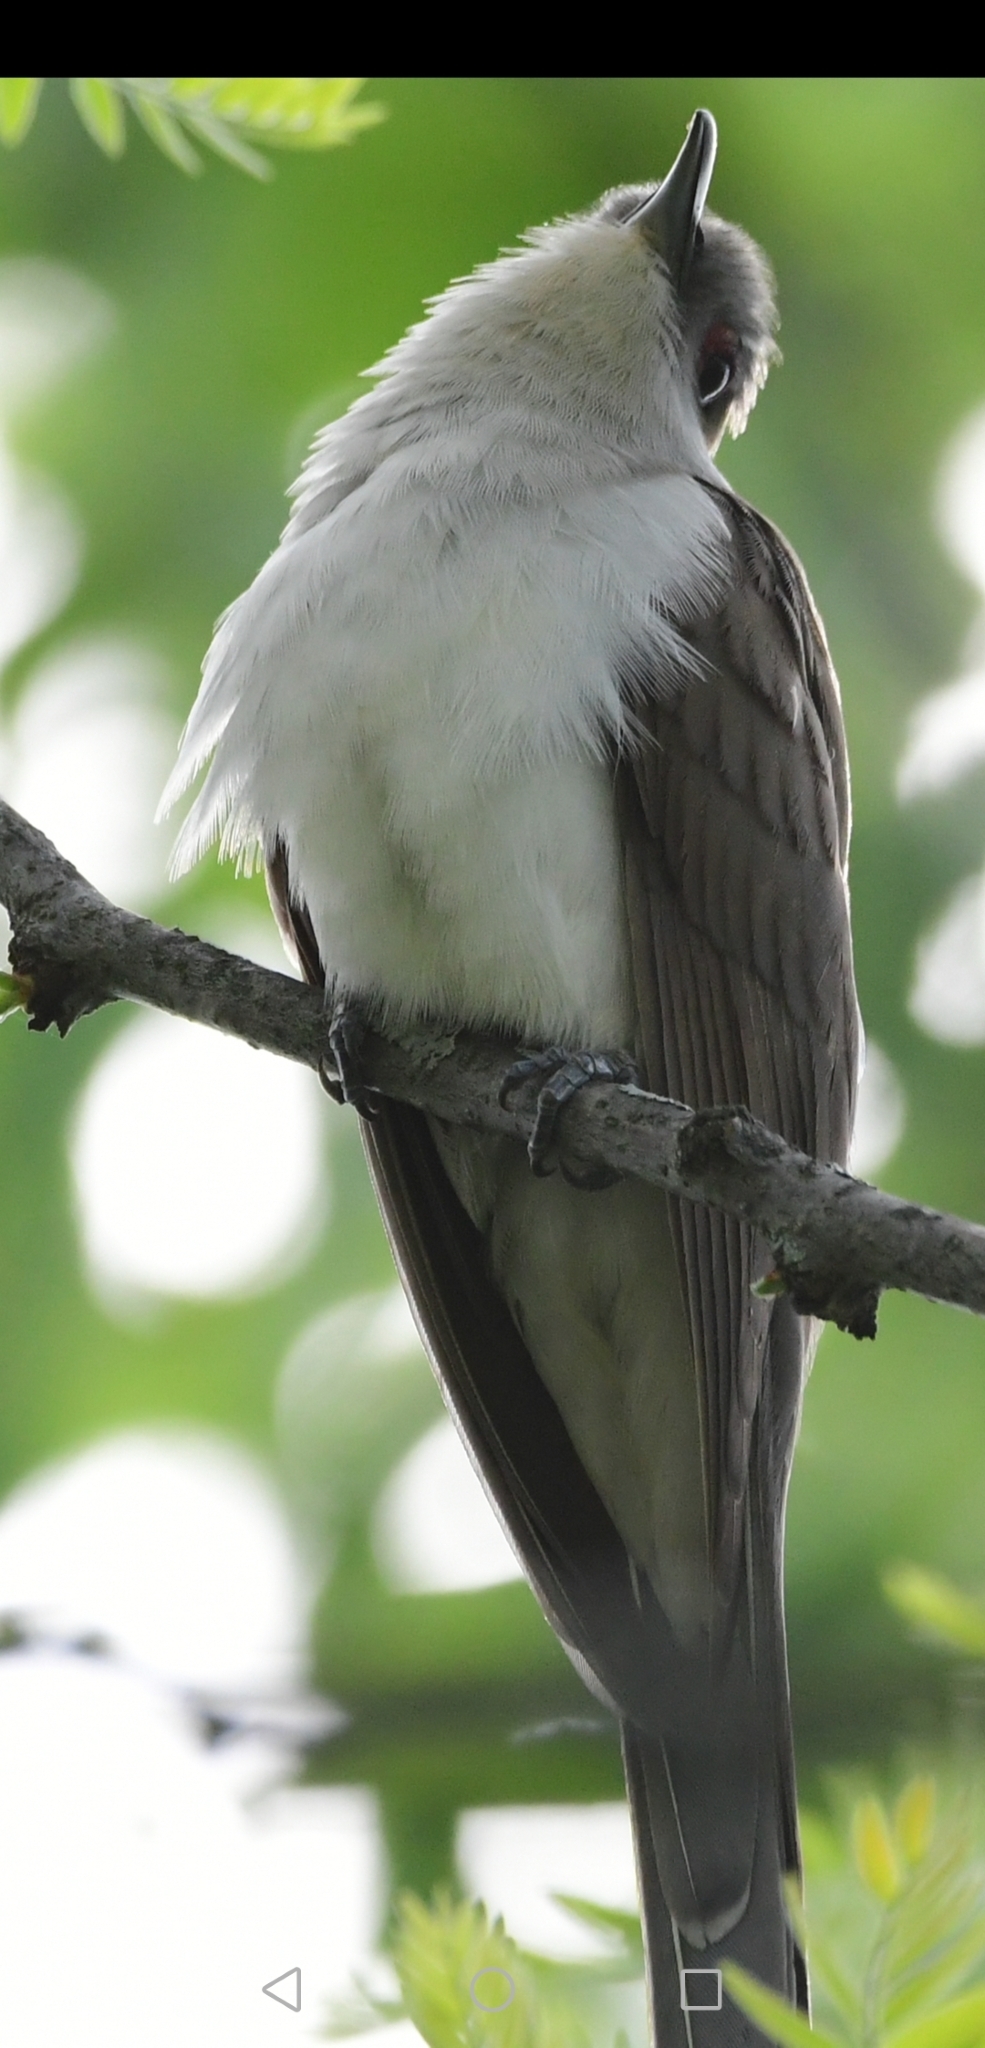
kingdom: Animalia
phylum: Chordata
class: Aves
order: Cuculiformes
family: Cuculidae
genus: Coccyzus
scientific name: Coccyzus erythropthalmus
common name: Black-billed cuckoo
